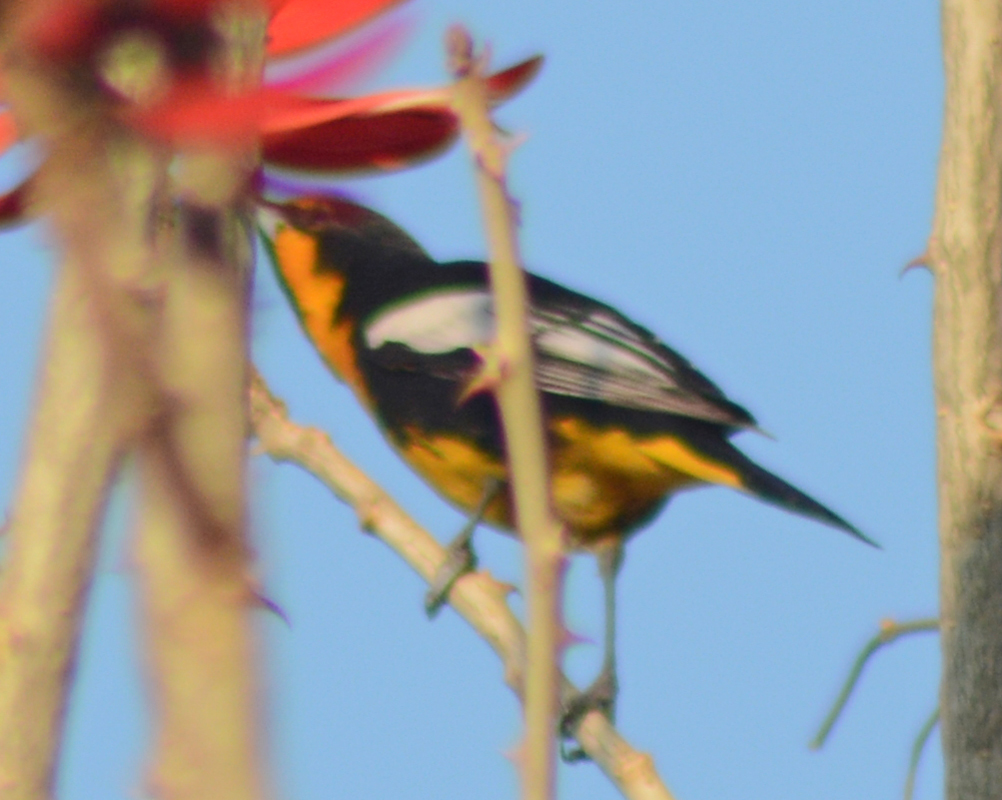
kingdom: Animalia
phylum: Chordata
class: Aves
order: Passeriformes
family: Icteridae
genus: Icterus
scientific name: Icterus abeillei
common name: Black-backed oriole
